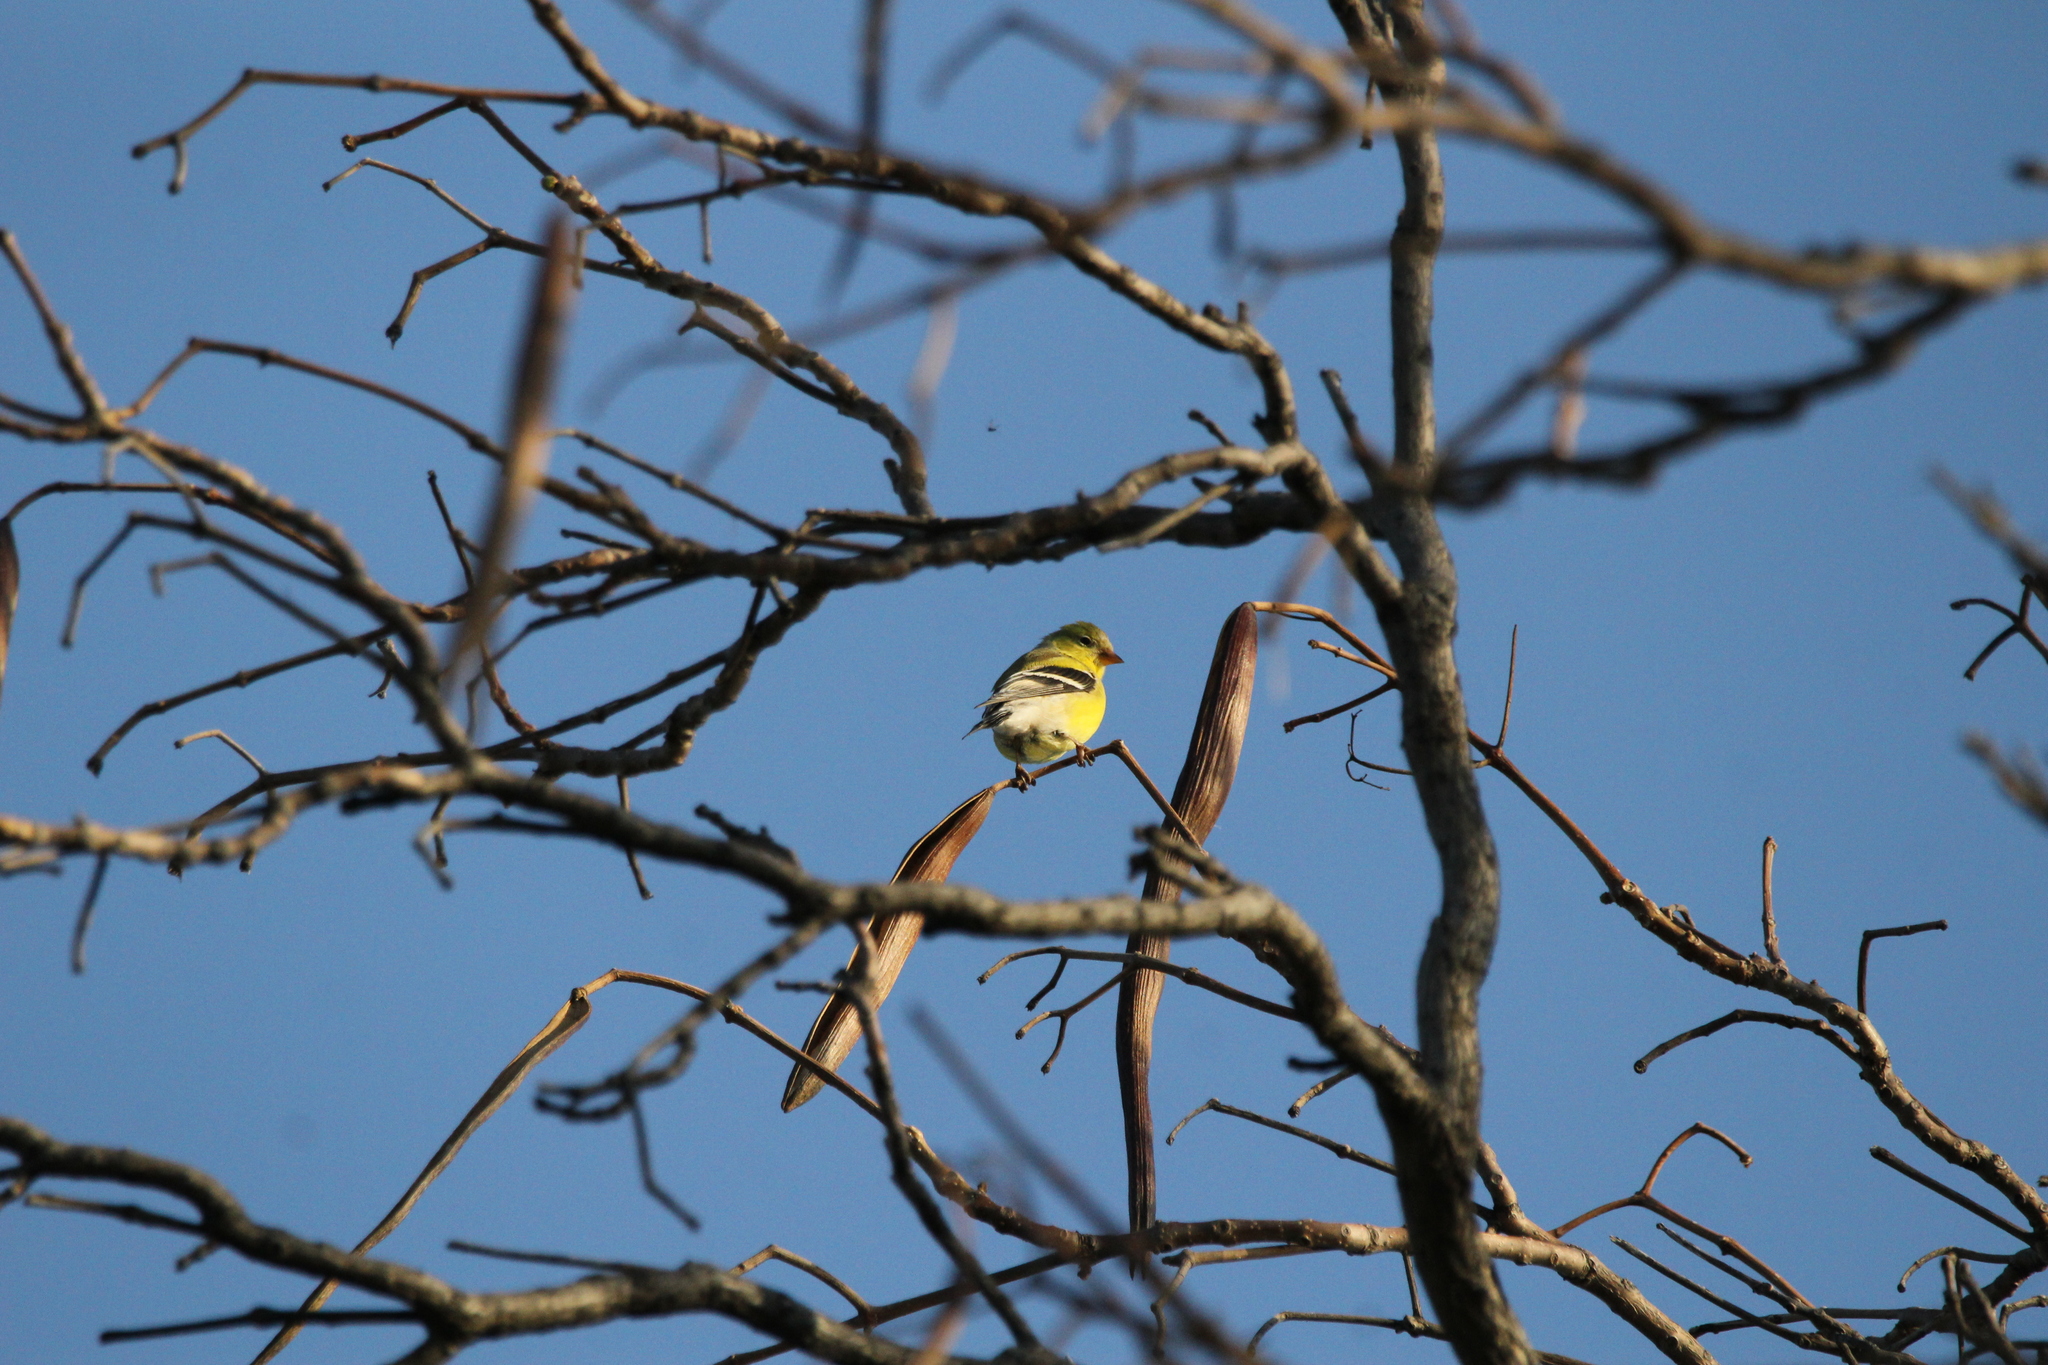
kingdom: Animalia
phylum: Chordata
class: Aves
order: Passeriformes
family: Fringillidae
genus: Spinus
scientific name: Spinus tristis
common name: American goldfinch
